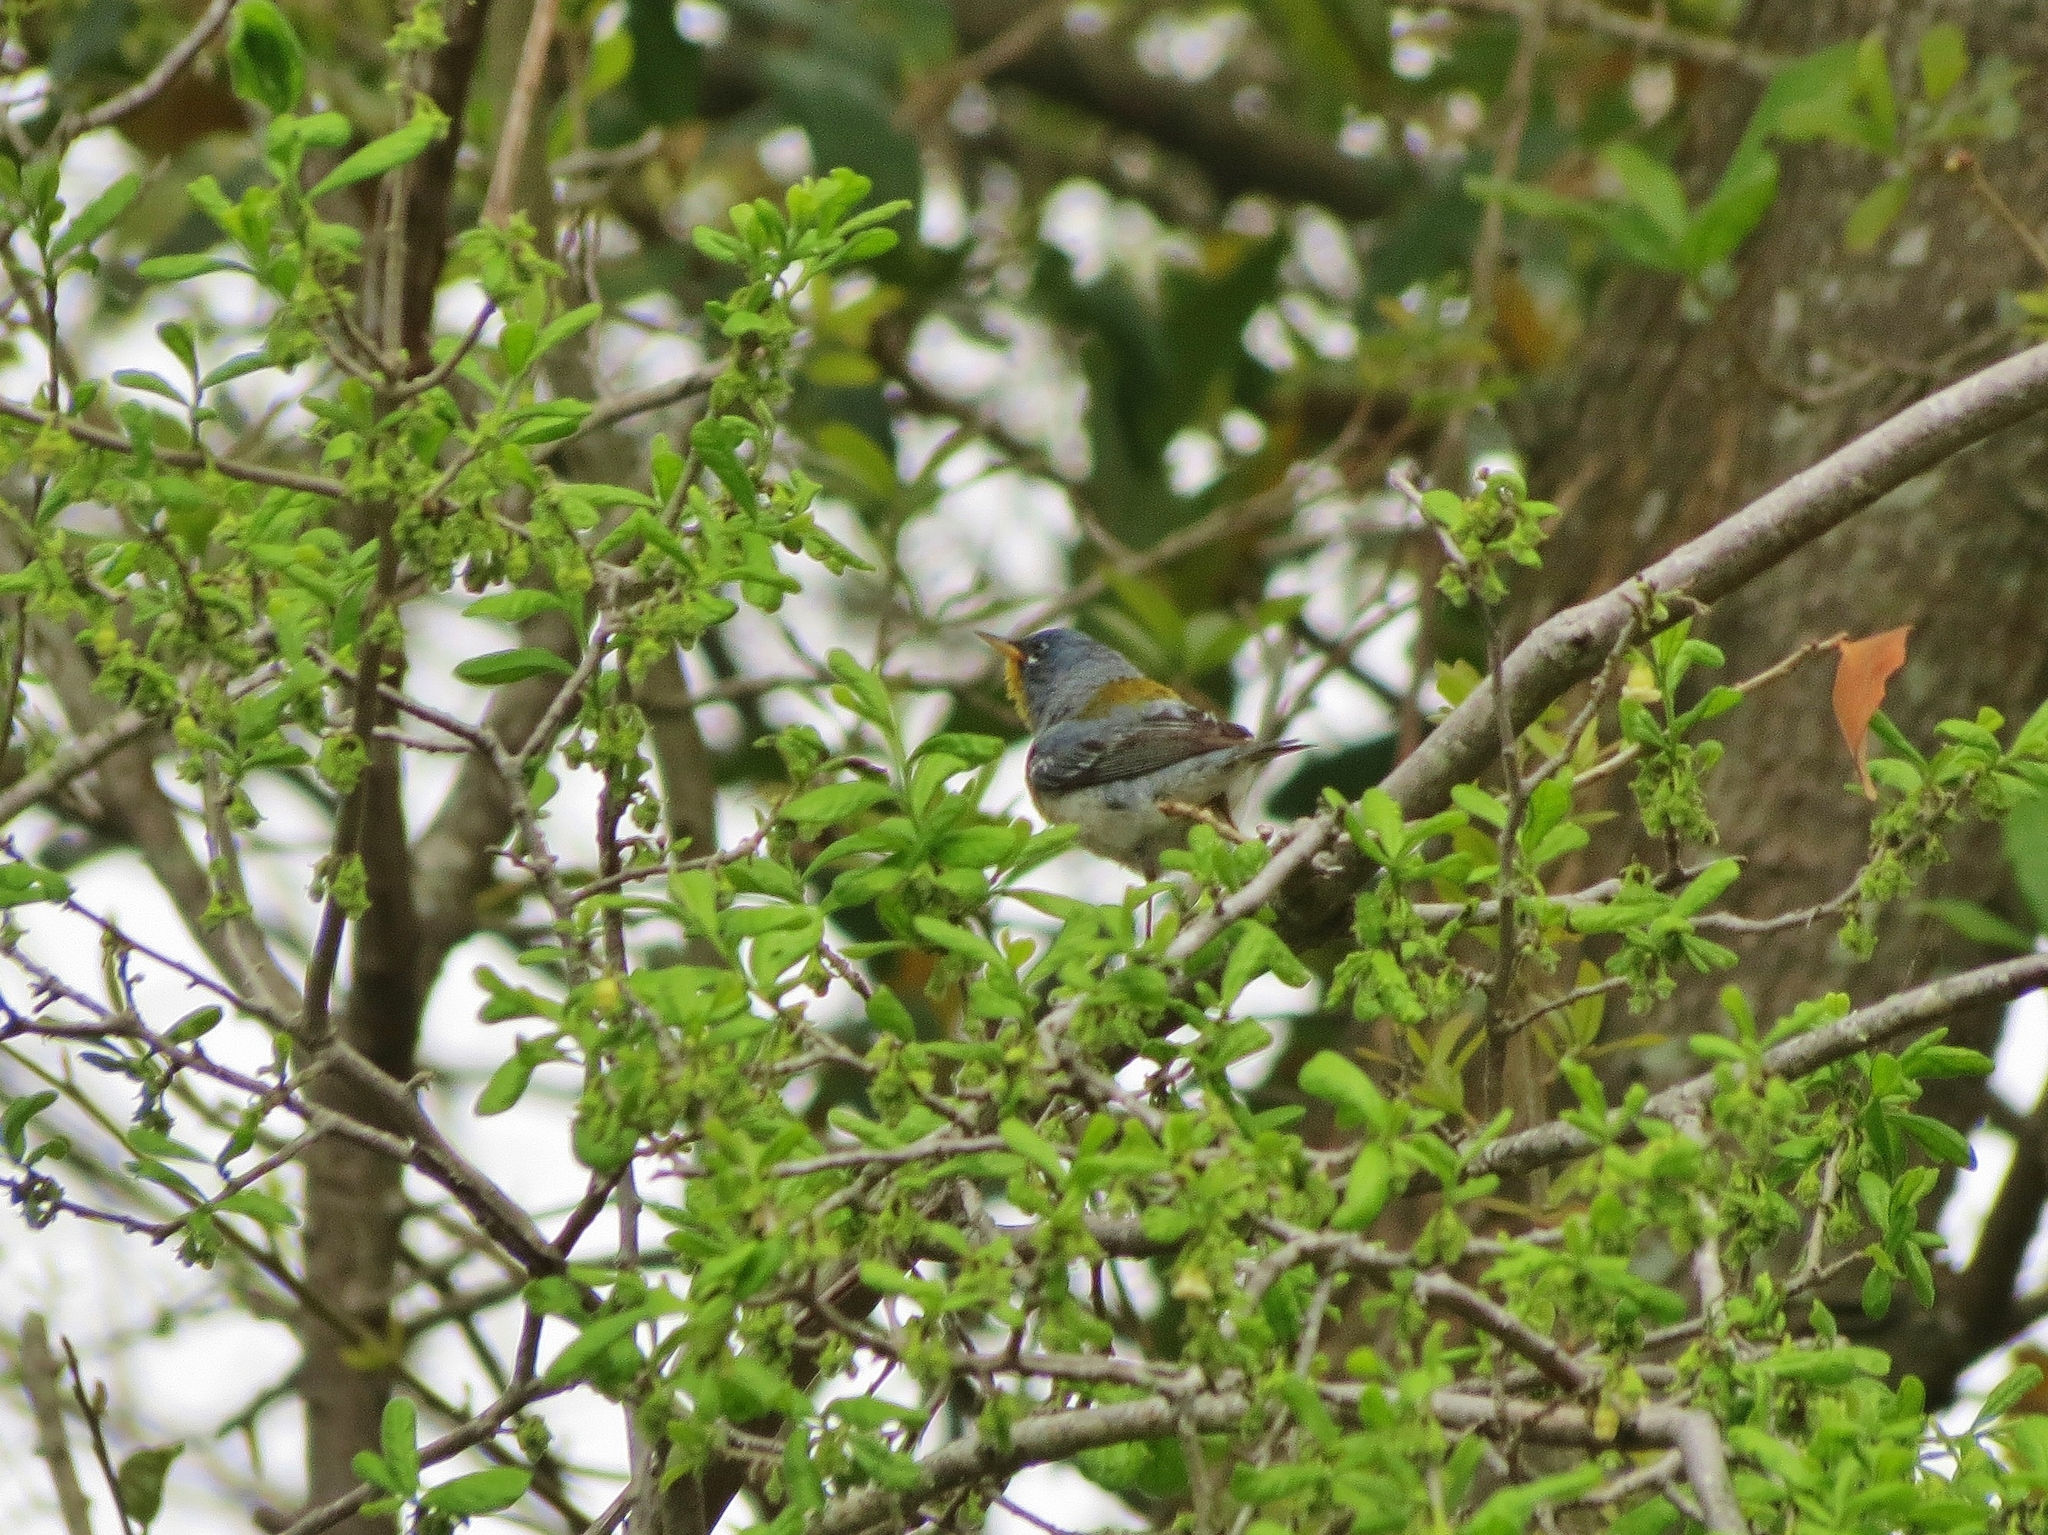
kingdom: Animalia
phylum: Chordata
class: Aves
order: Passeriformes
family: Parulidae
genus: Setophaga
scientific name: Setophaga americana
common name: Northern parula
